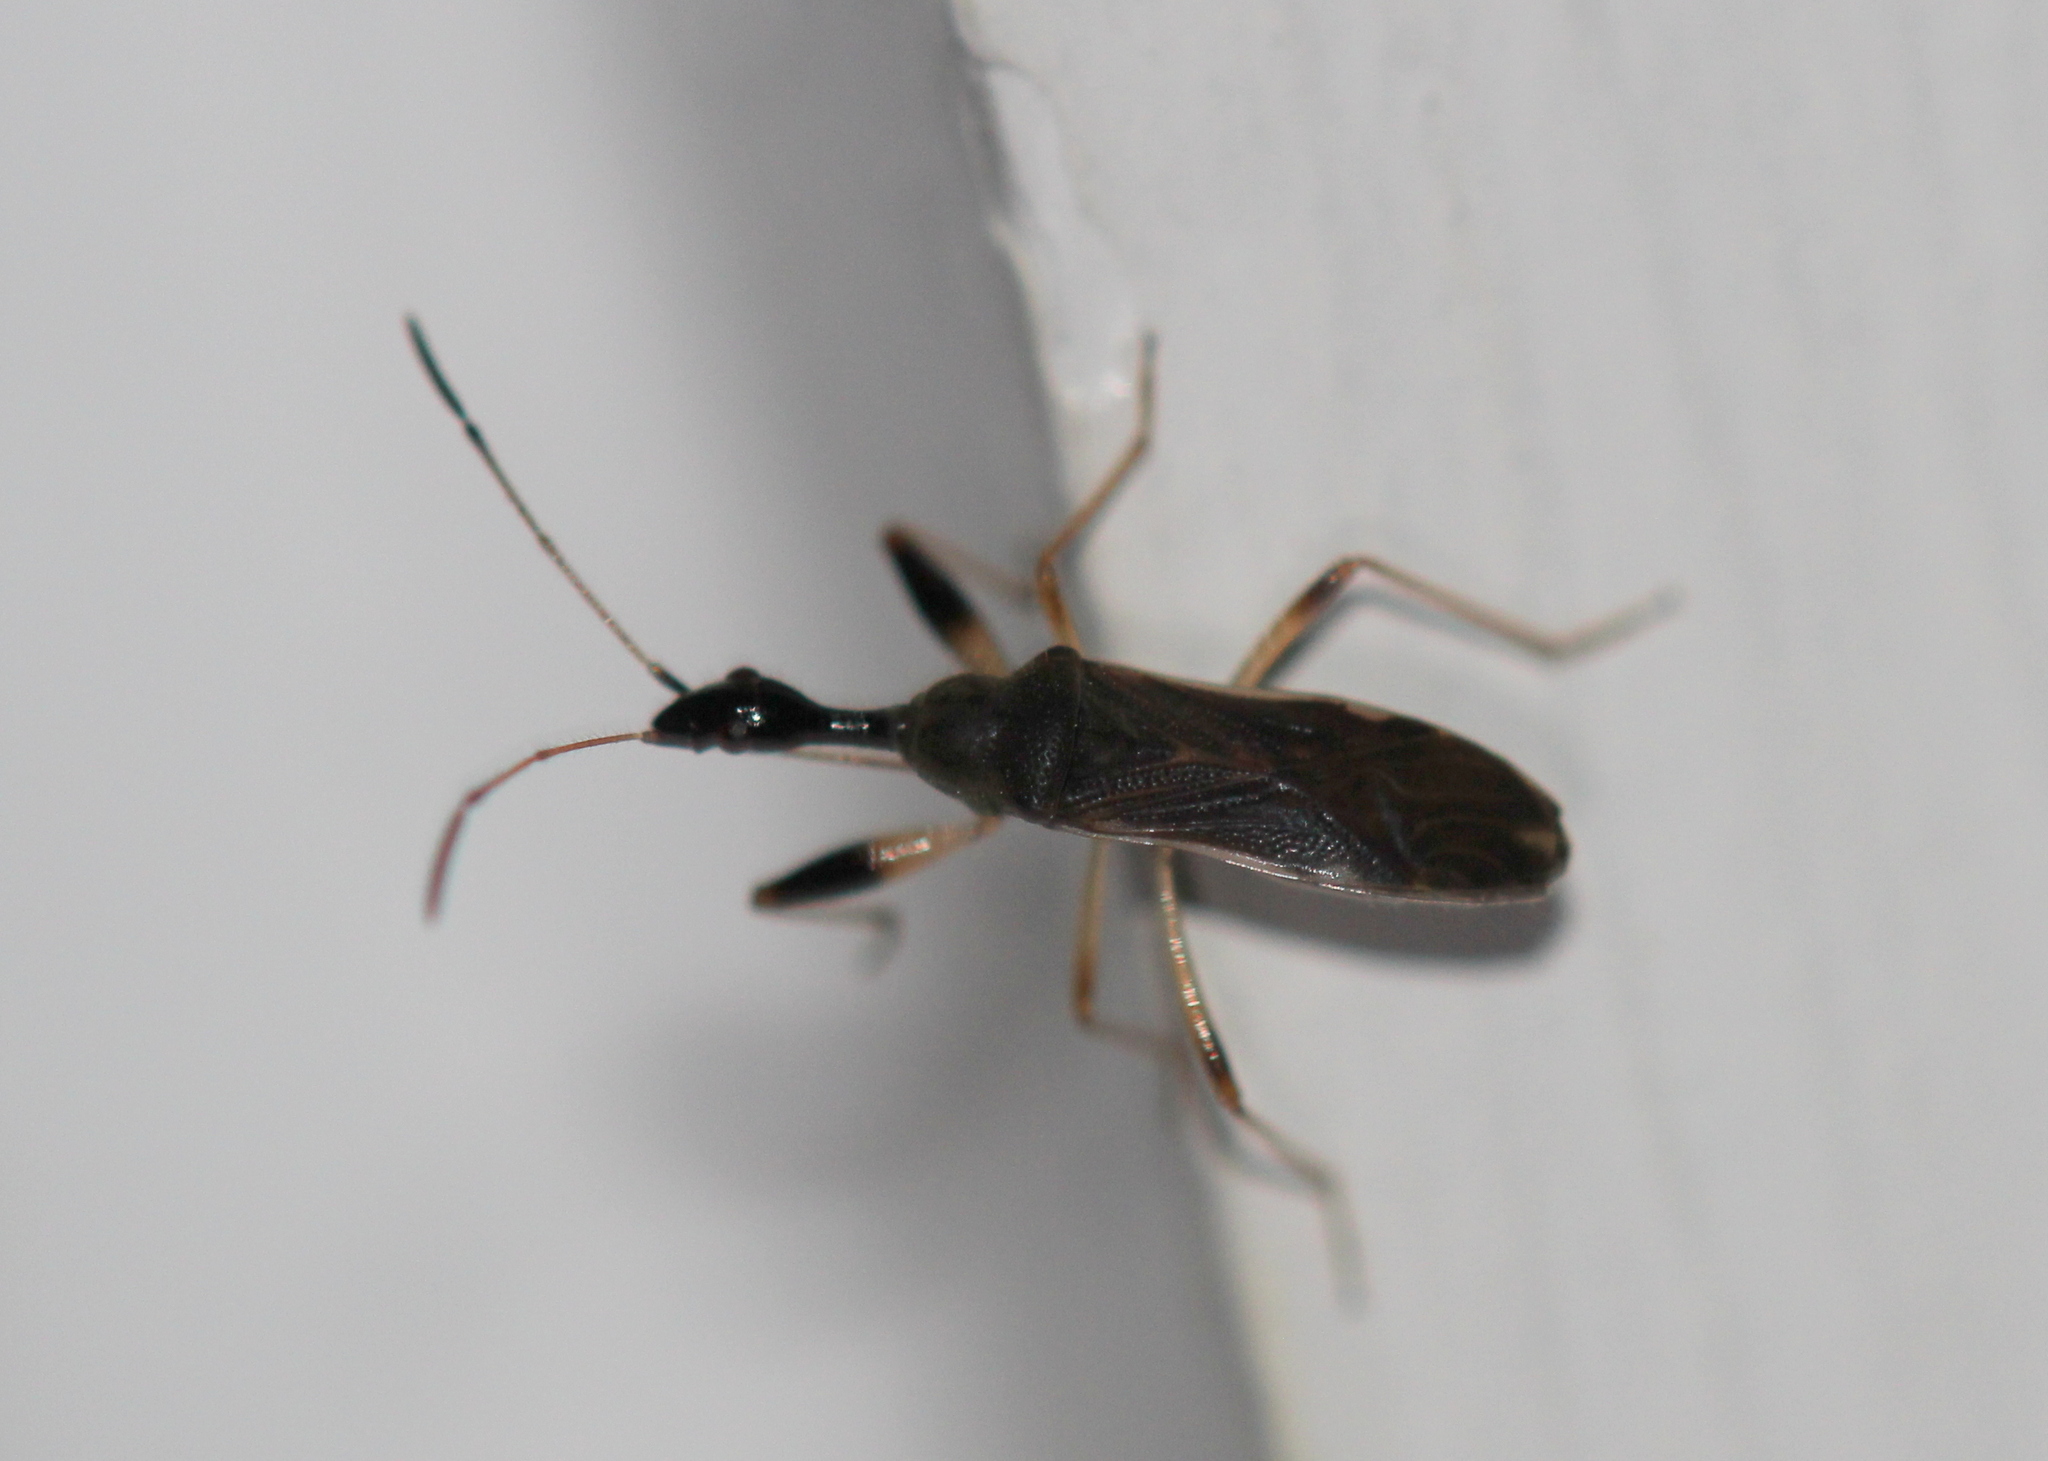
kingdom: Animalia
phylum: Arthropoda
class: Insecta
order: Hemiptera
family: Rhyparochromidae
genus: Myodocha
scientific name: Myodocha serripes
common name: Long-necked seed bug
